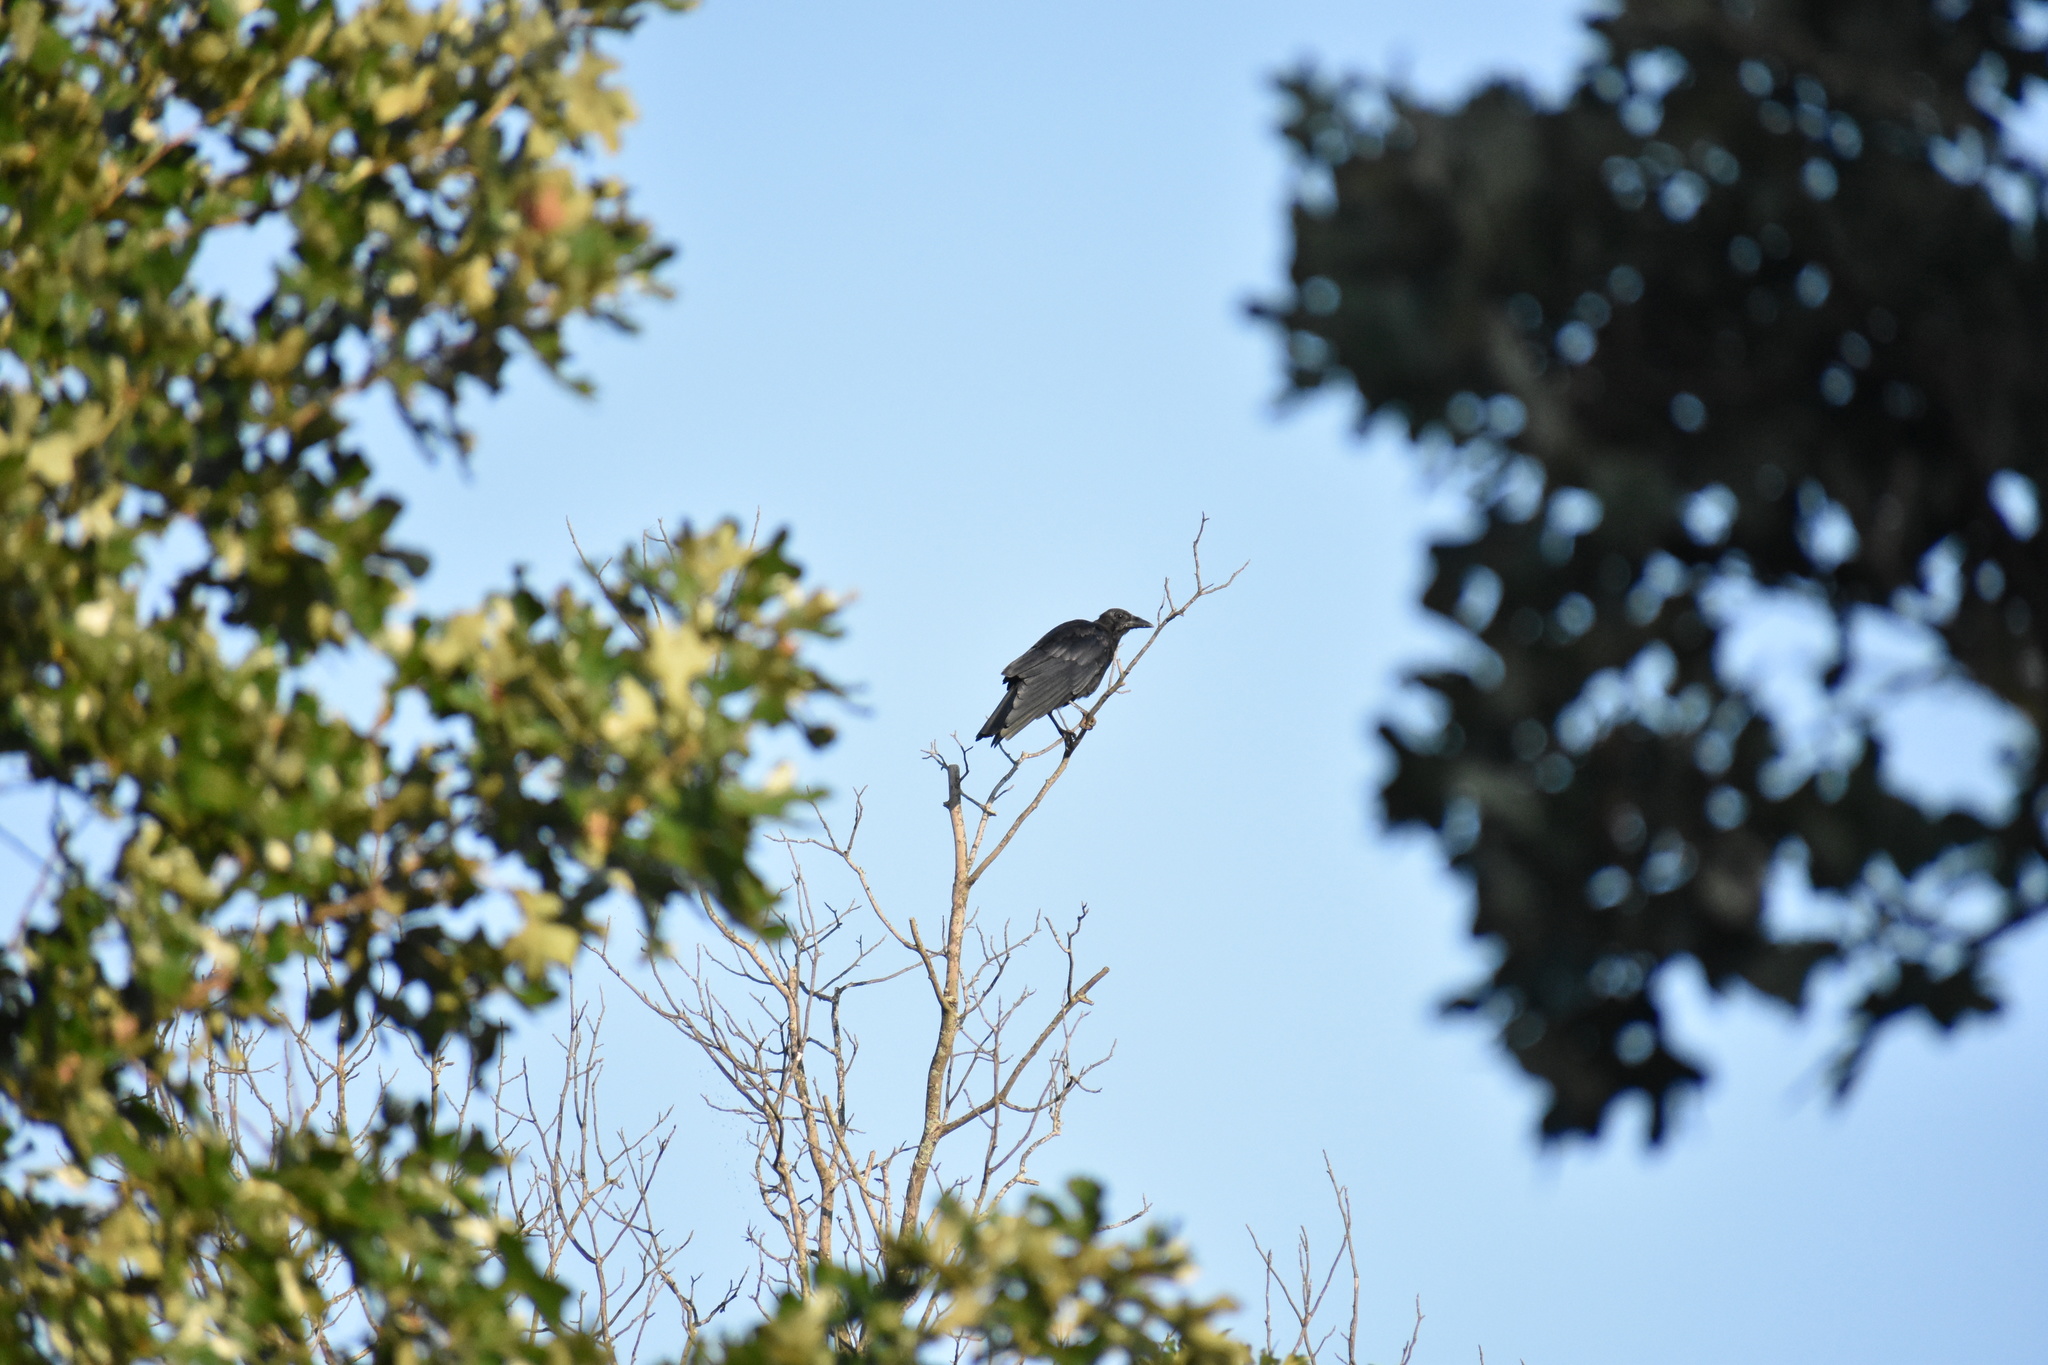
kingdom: Animalia
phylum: Chordata
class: Aves
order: Passeriformes
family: Corvidae
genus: Corvus
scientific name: Corvus brachyrhynchos
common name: American crow
